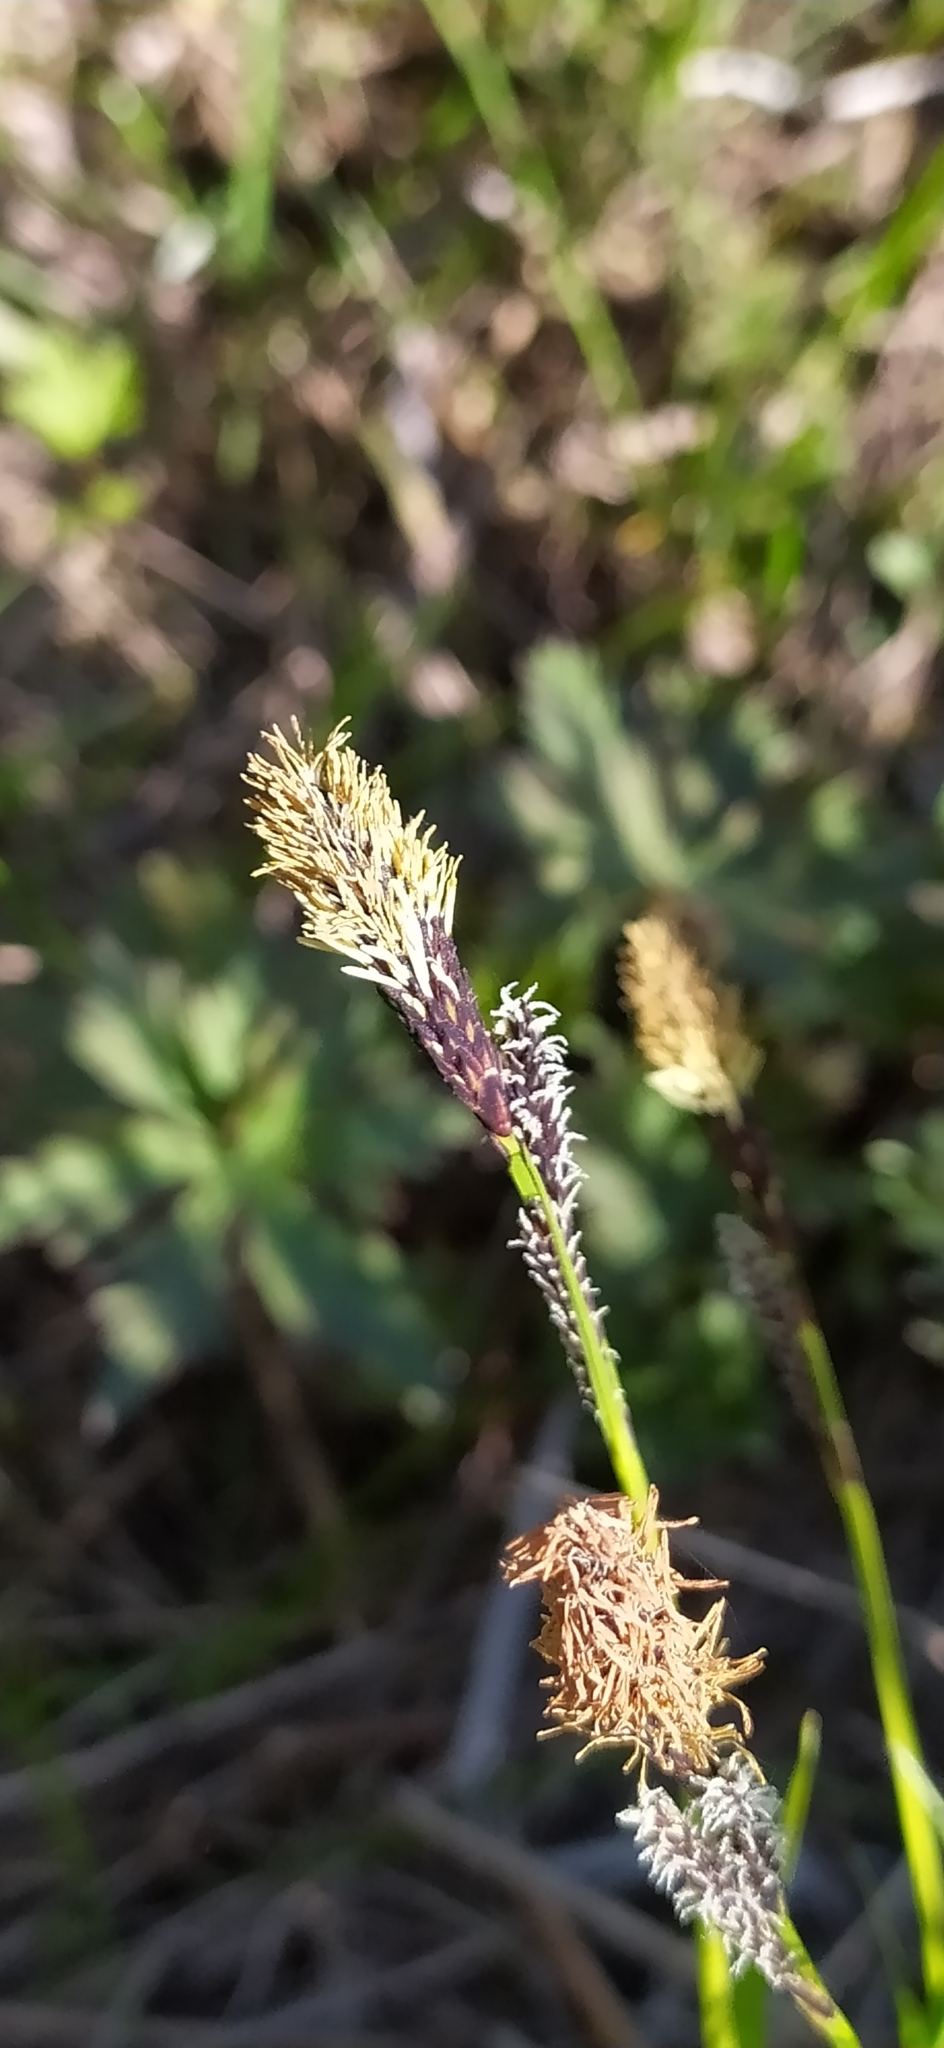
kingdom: Plantae
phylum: Tracheophyta
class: Liliopsida
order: Poales
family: Cyperaceae
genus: Carex
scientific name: Carex cespitosa
